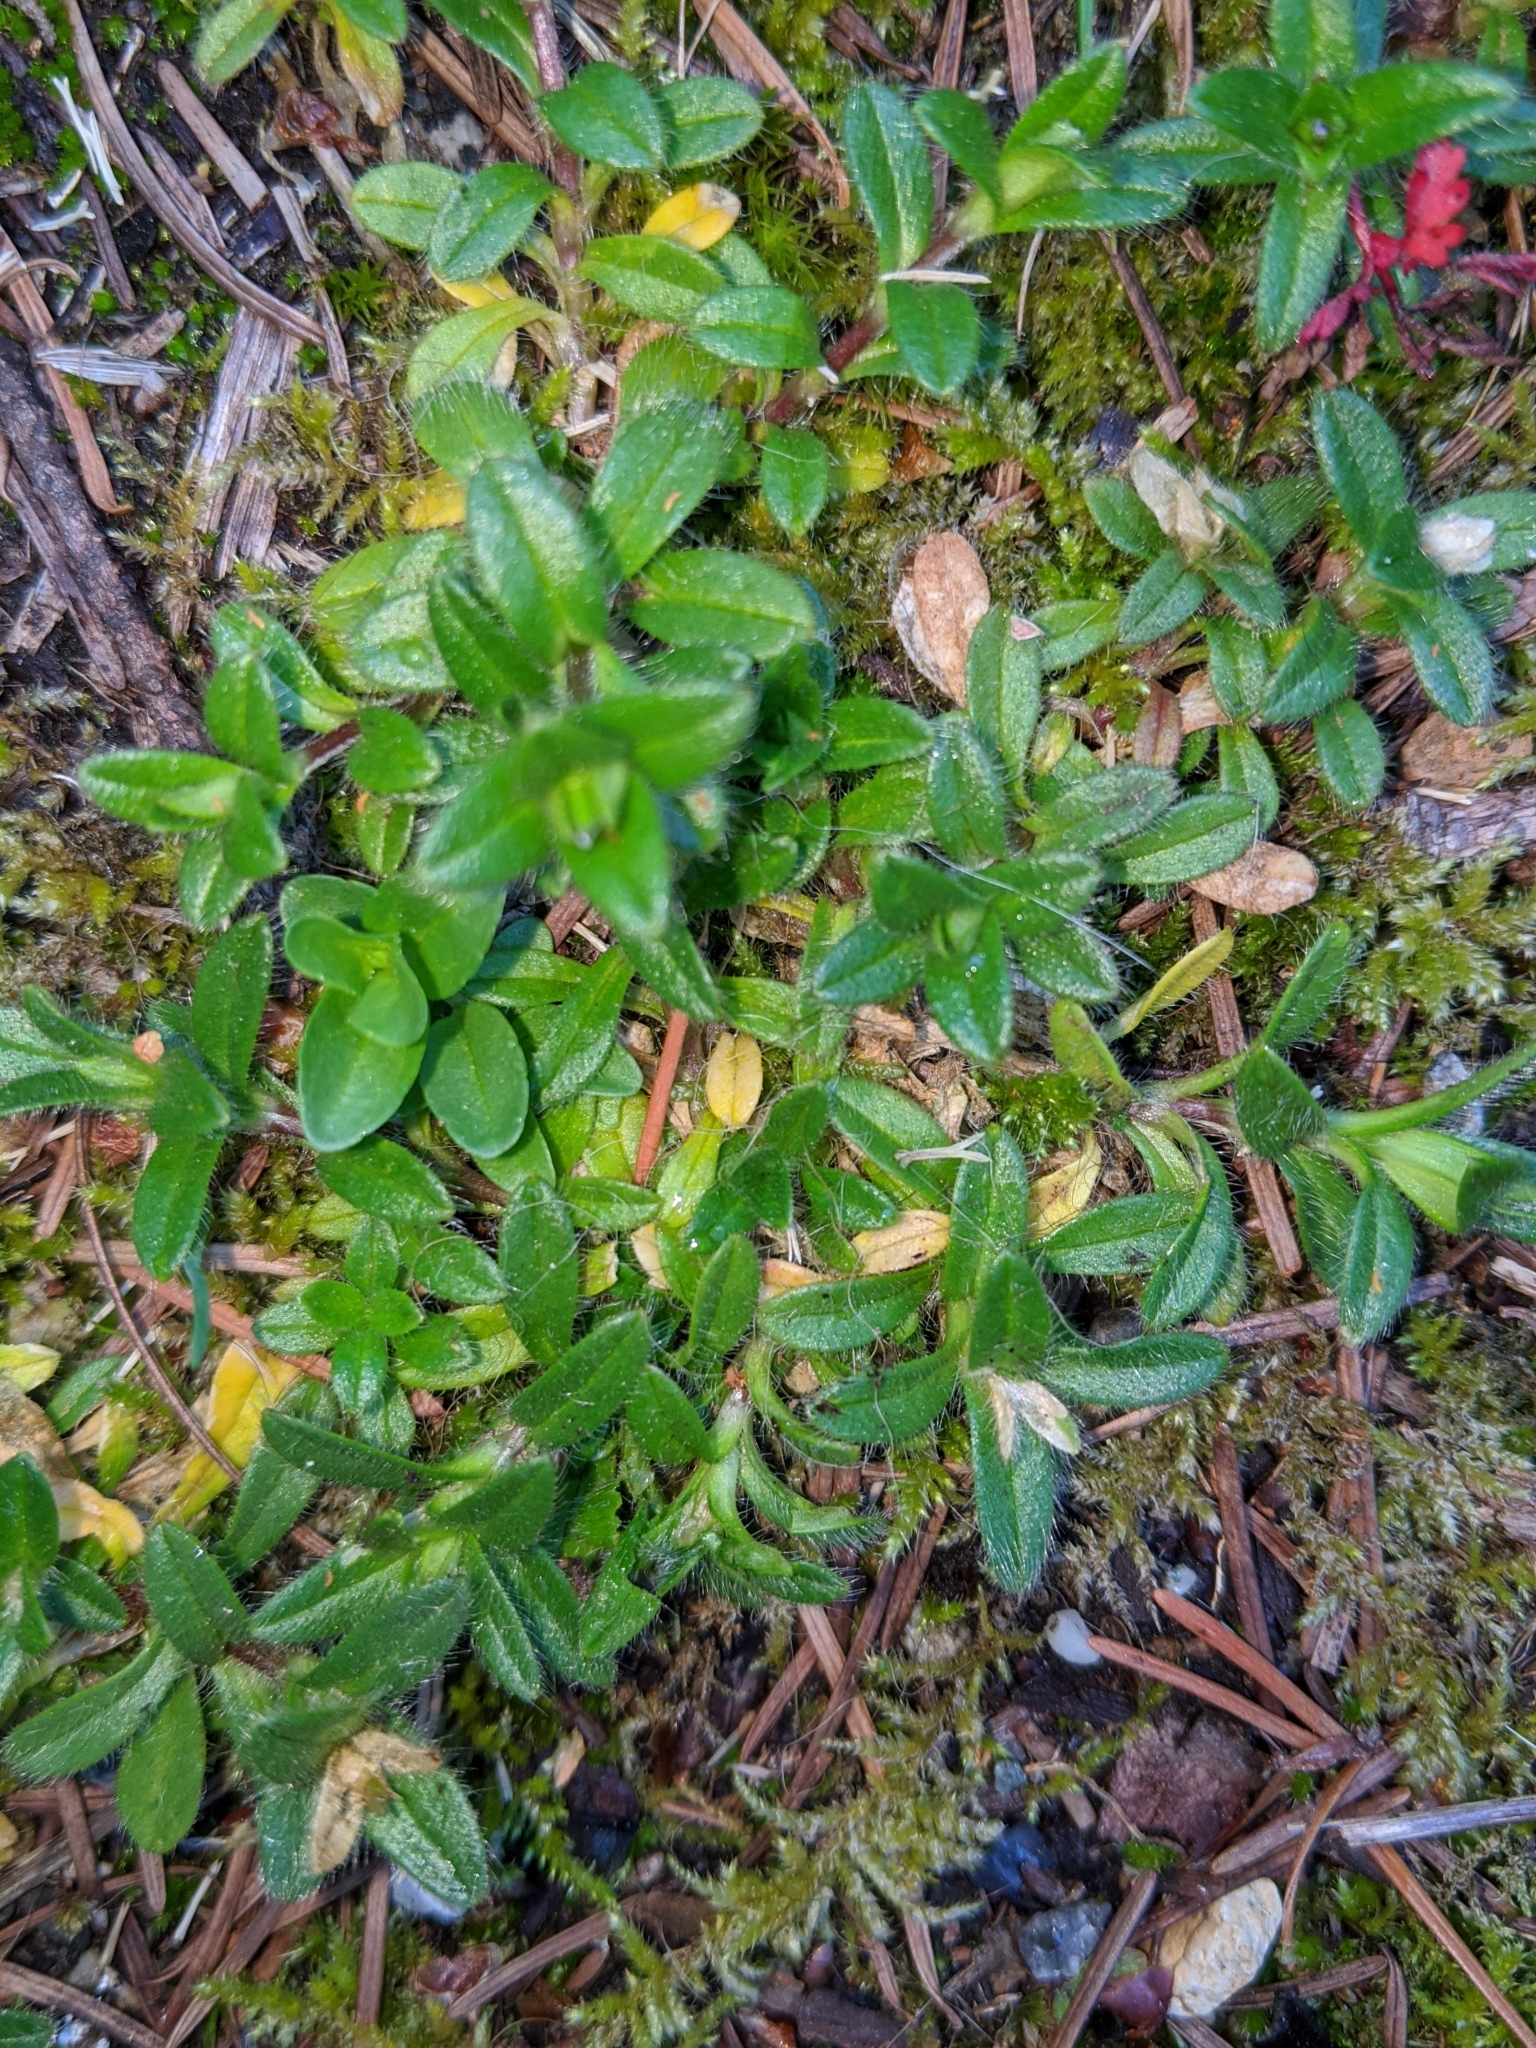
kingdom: Plantae
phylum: Tracheophyta
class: Magnoliopsida
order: Caryophyllales
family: Caryophyllaceae
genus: Cerastium
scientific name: Cerastium fontanum
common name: Common mouse-ear
